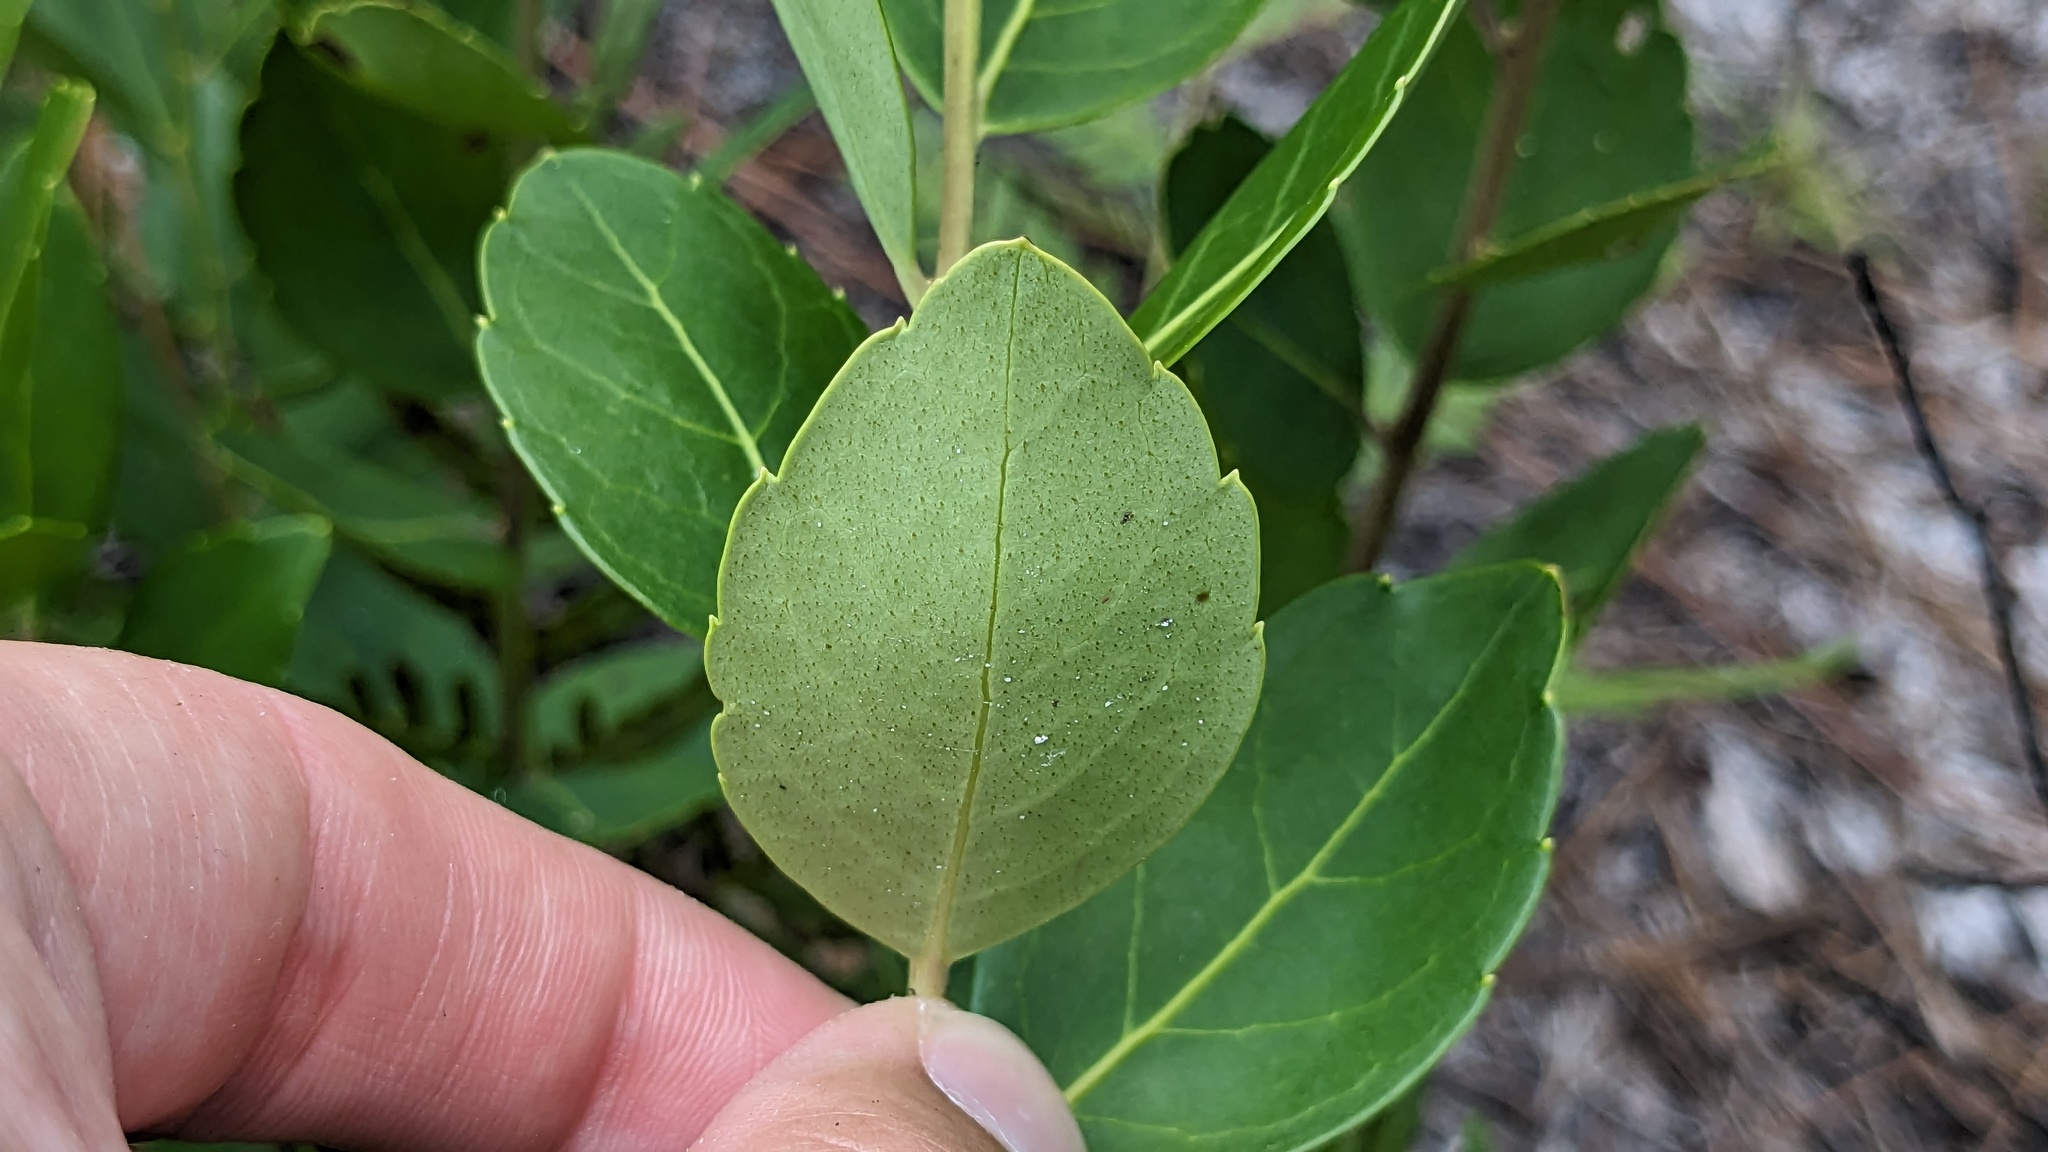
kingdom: Plantae
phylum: Tracheophyta
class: Magnoliopsida
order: Aquifoliales
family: Aquifoliaceae
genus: Ilex
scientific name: Ilex glabra
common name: Bitter gallberry
